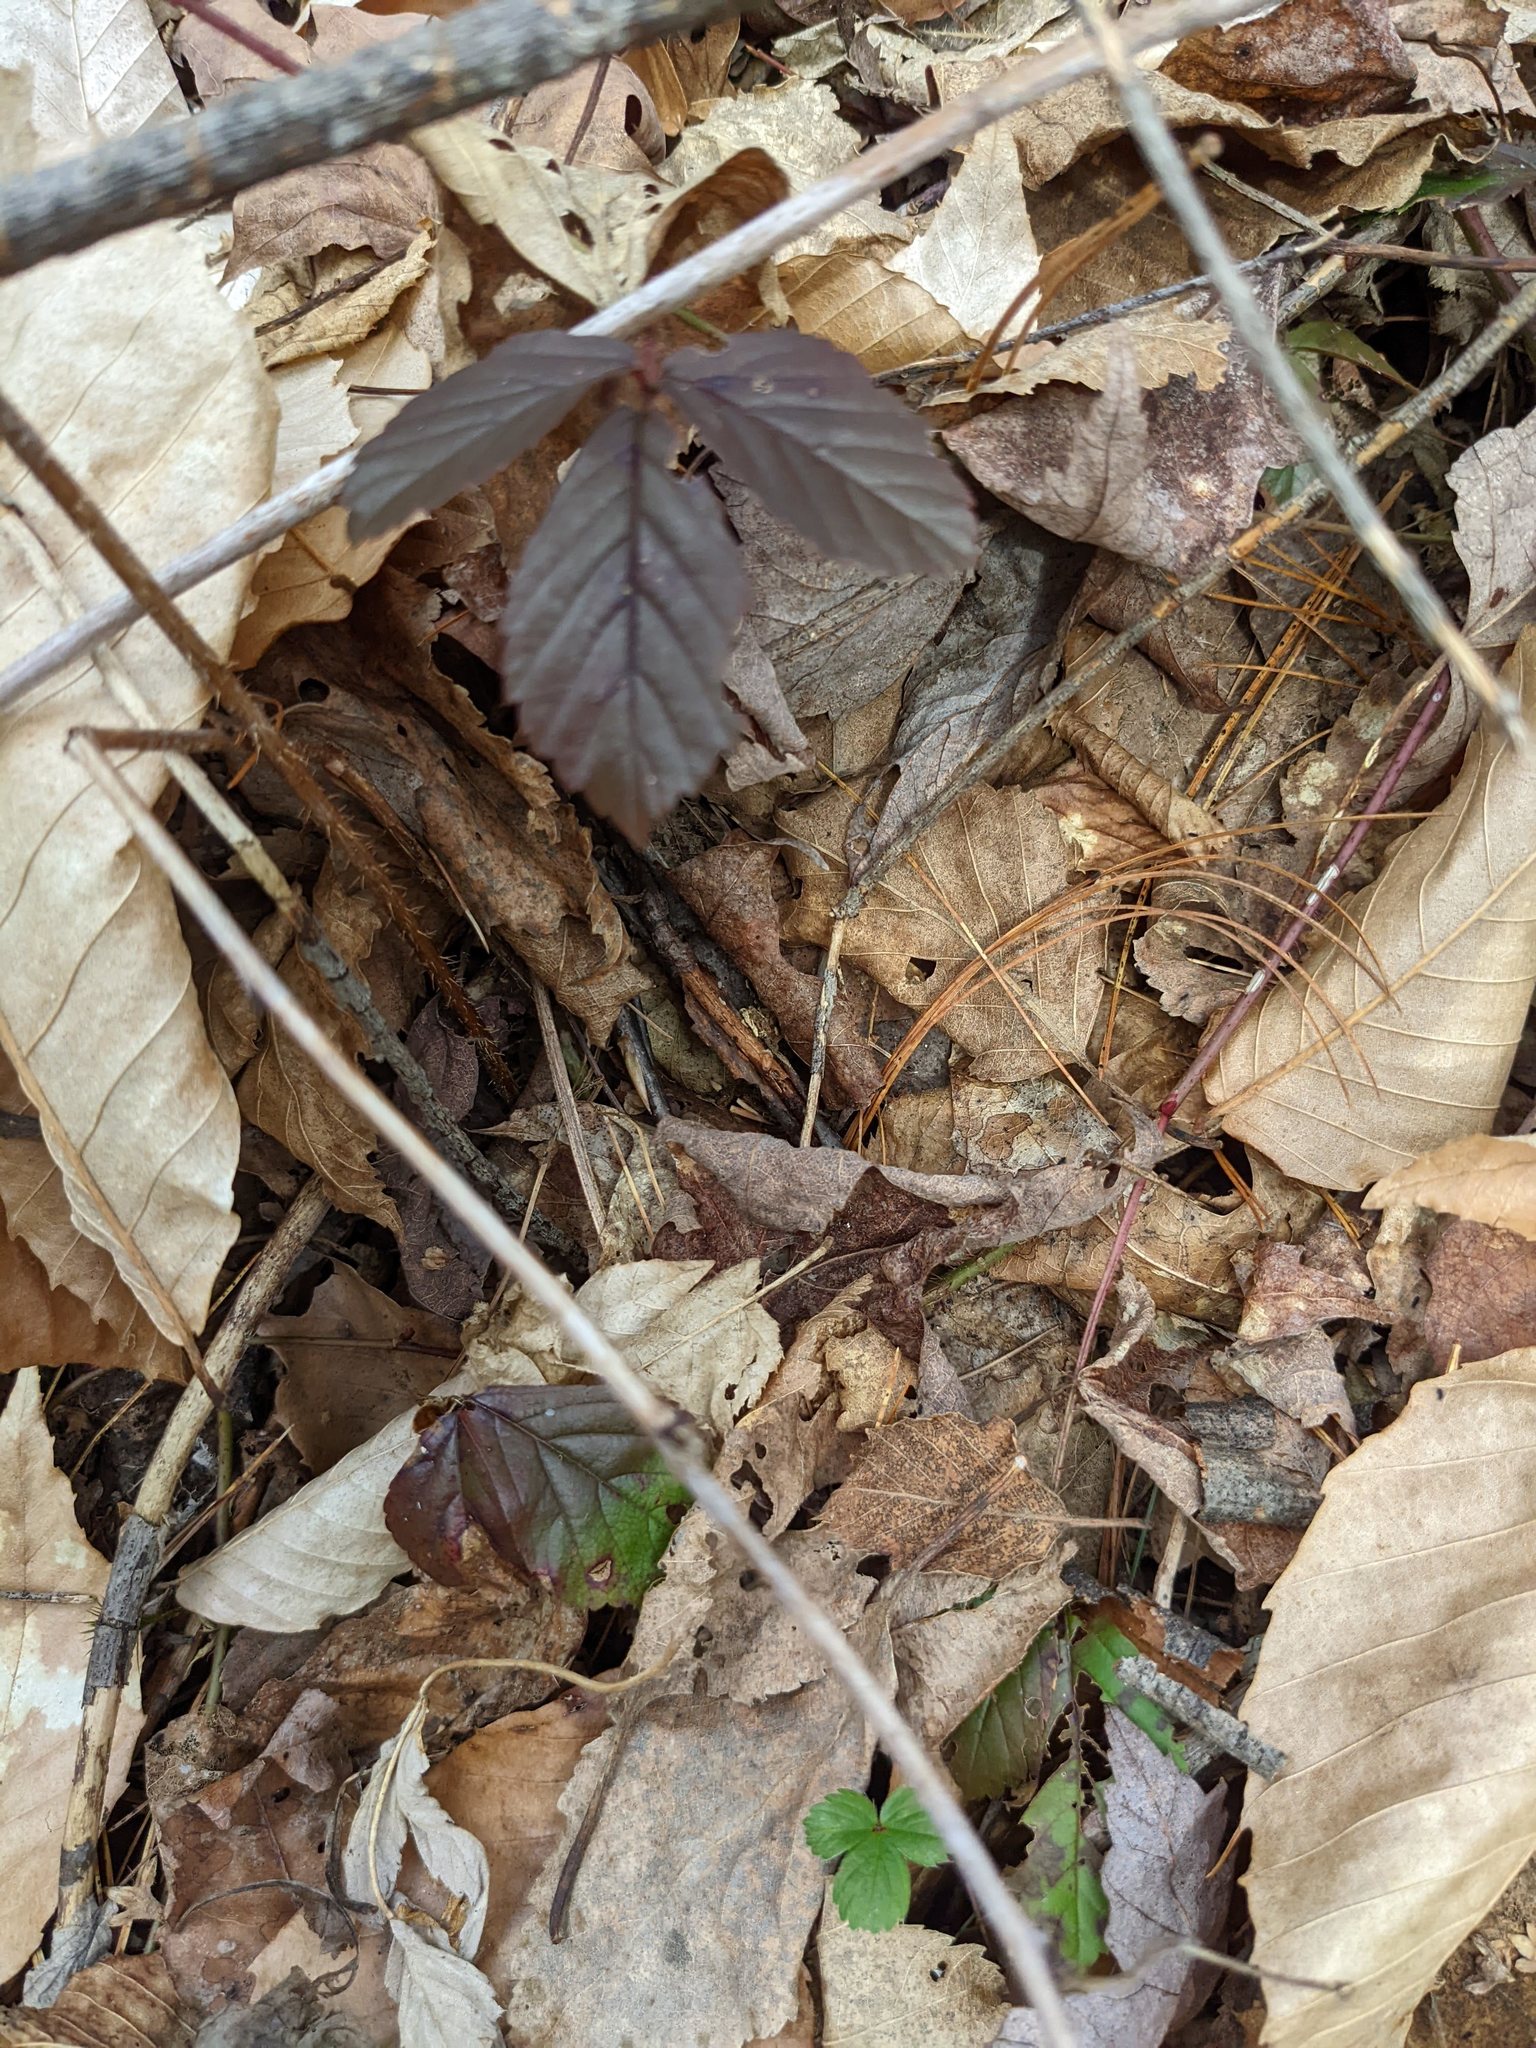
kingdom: Plantae
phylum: Tracheophyta
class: Magnoliopsida
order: Rosales
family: Rosaceae
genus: Rubus
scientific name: Rubus hispidus
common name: Running blackberry
